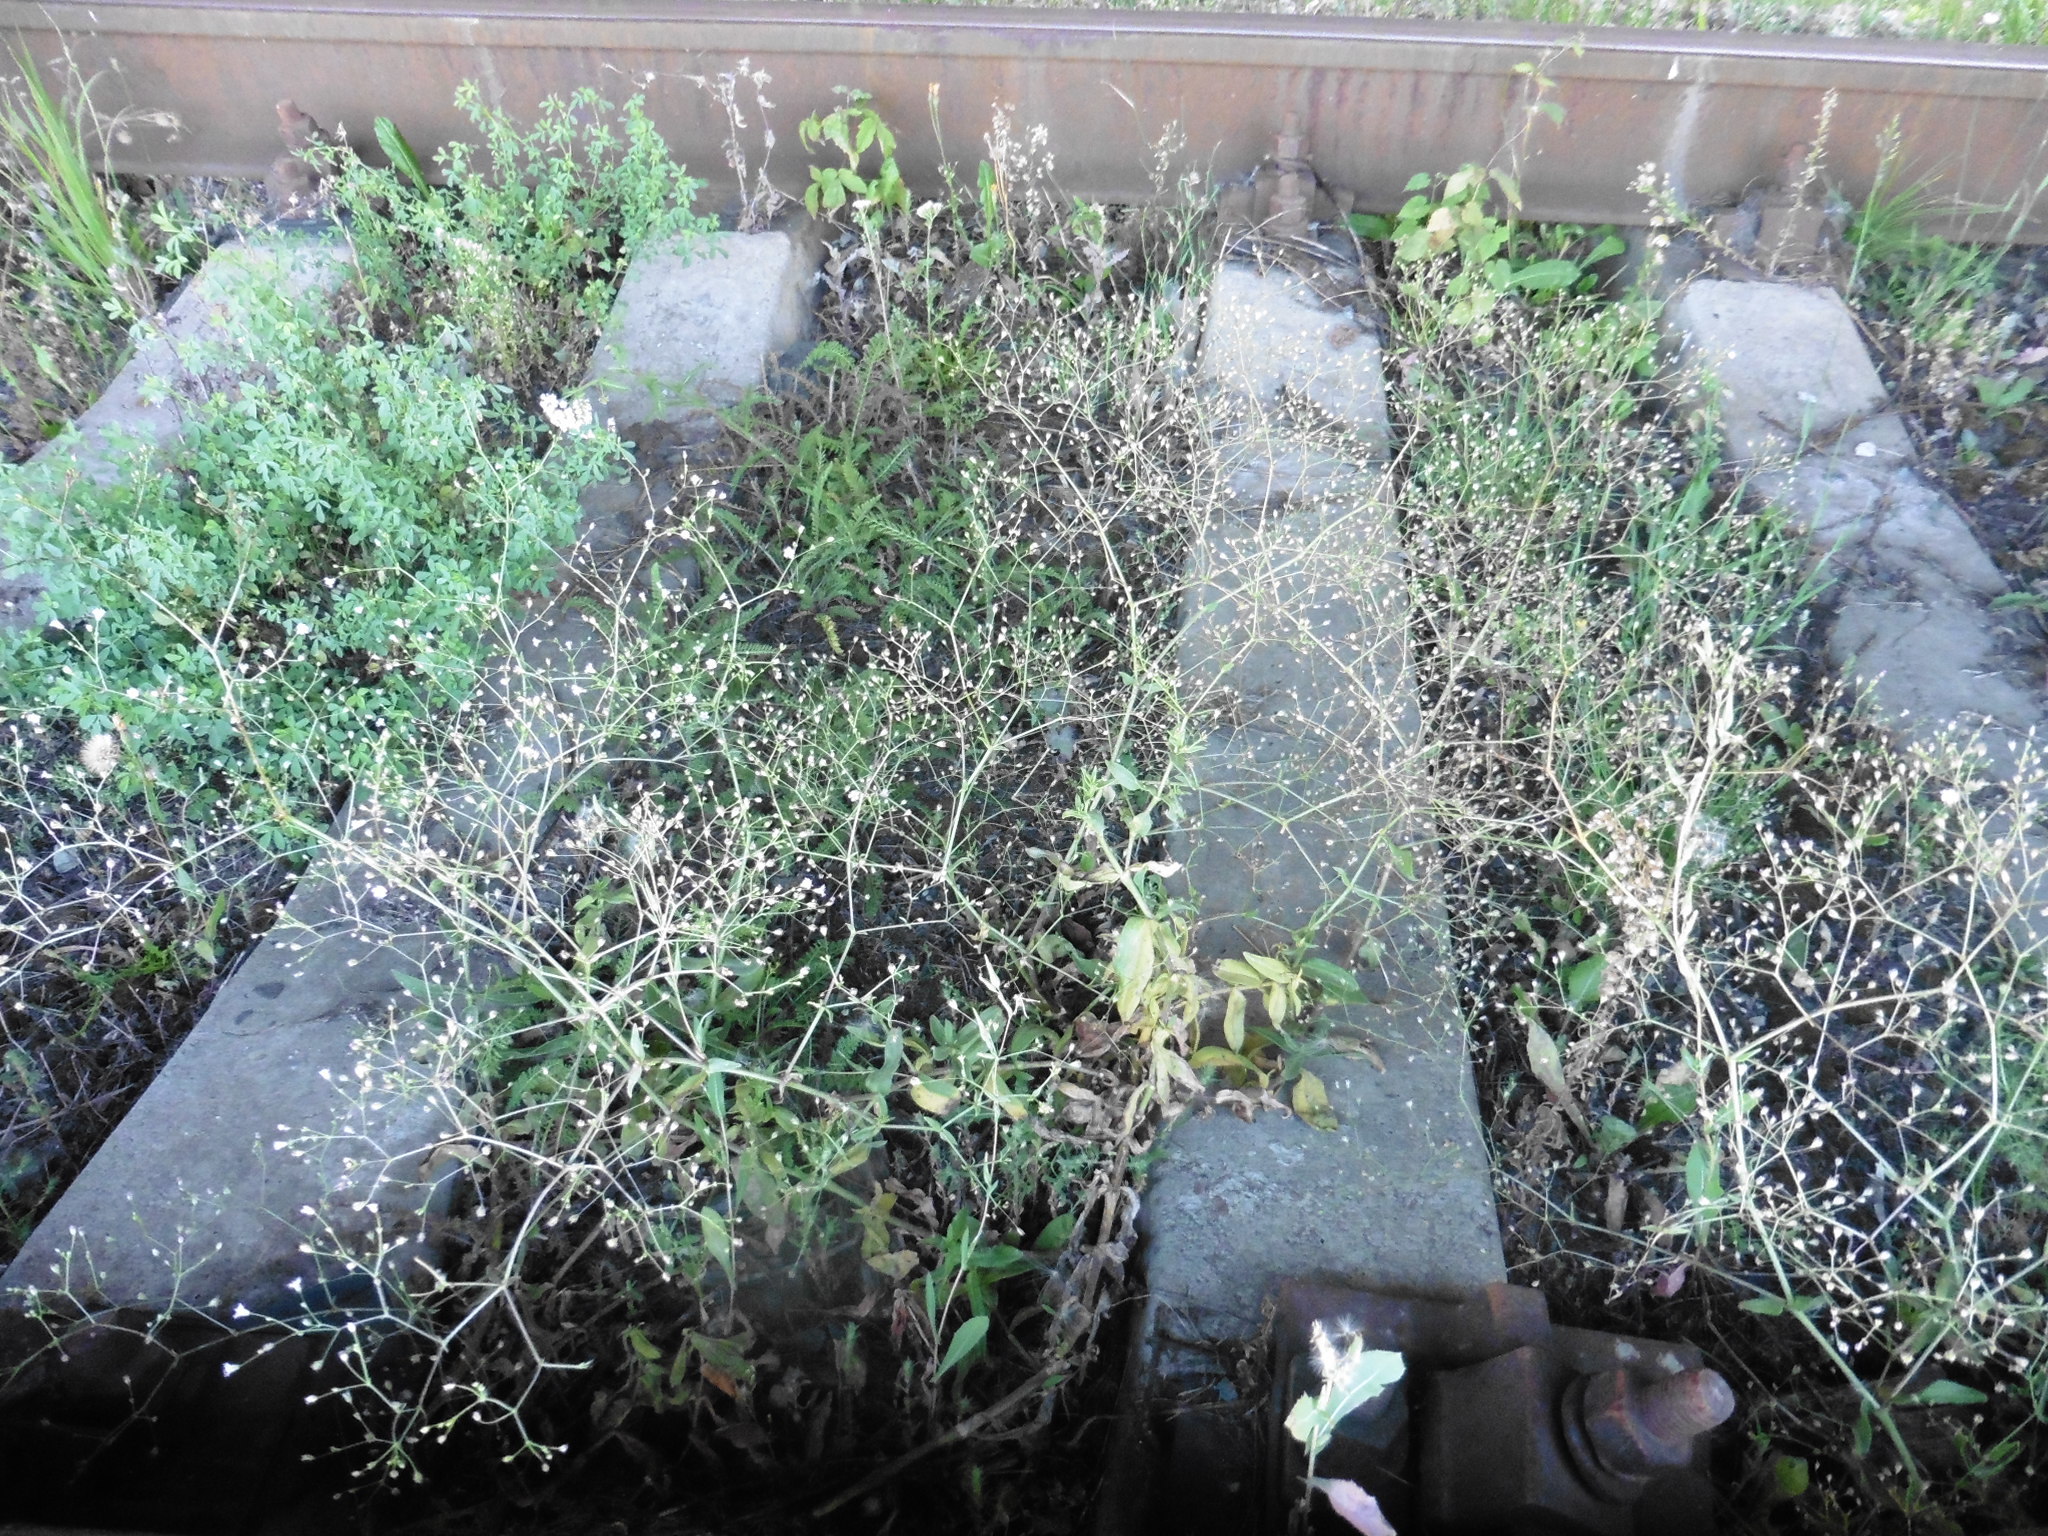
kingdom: Plantae
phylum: Tracheophyta
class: Magnoliopsida
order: Caryophyllales
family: Caryophyllaceae
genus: Gypsophila
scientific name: Gypsophila perfoliata
